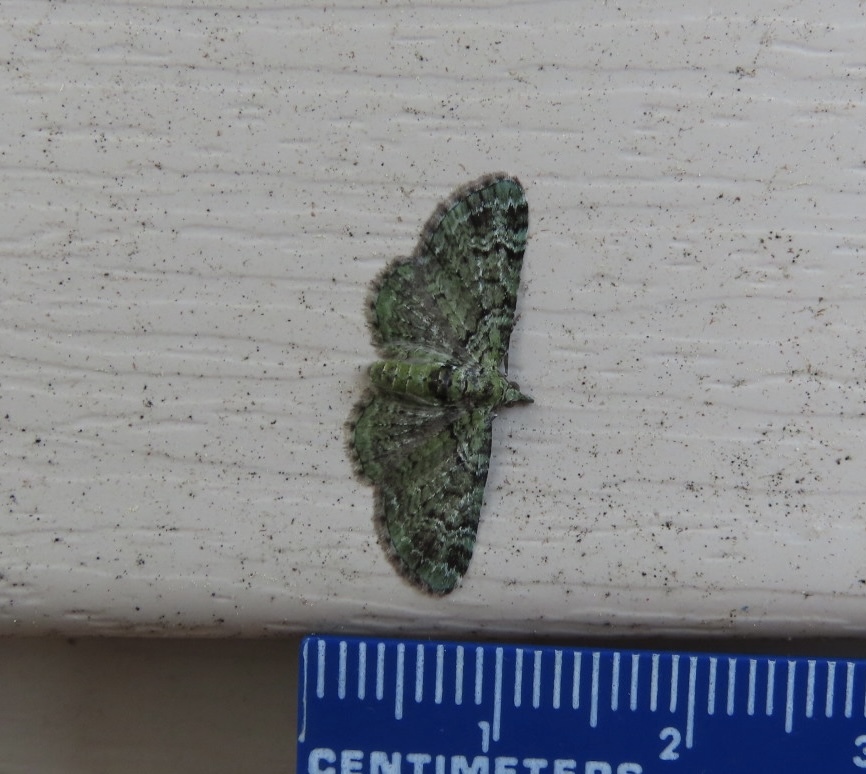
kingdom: Animalia
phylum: Arthropoda
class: Insecta
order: Lepidoptera
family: Geometridae
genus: Pasiphila
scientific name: Pasiphila rectangulata
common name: Green pug
